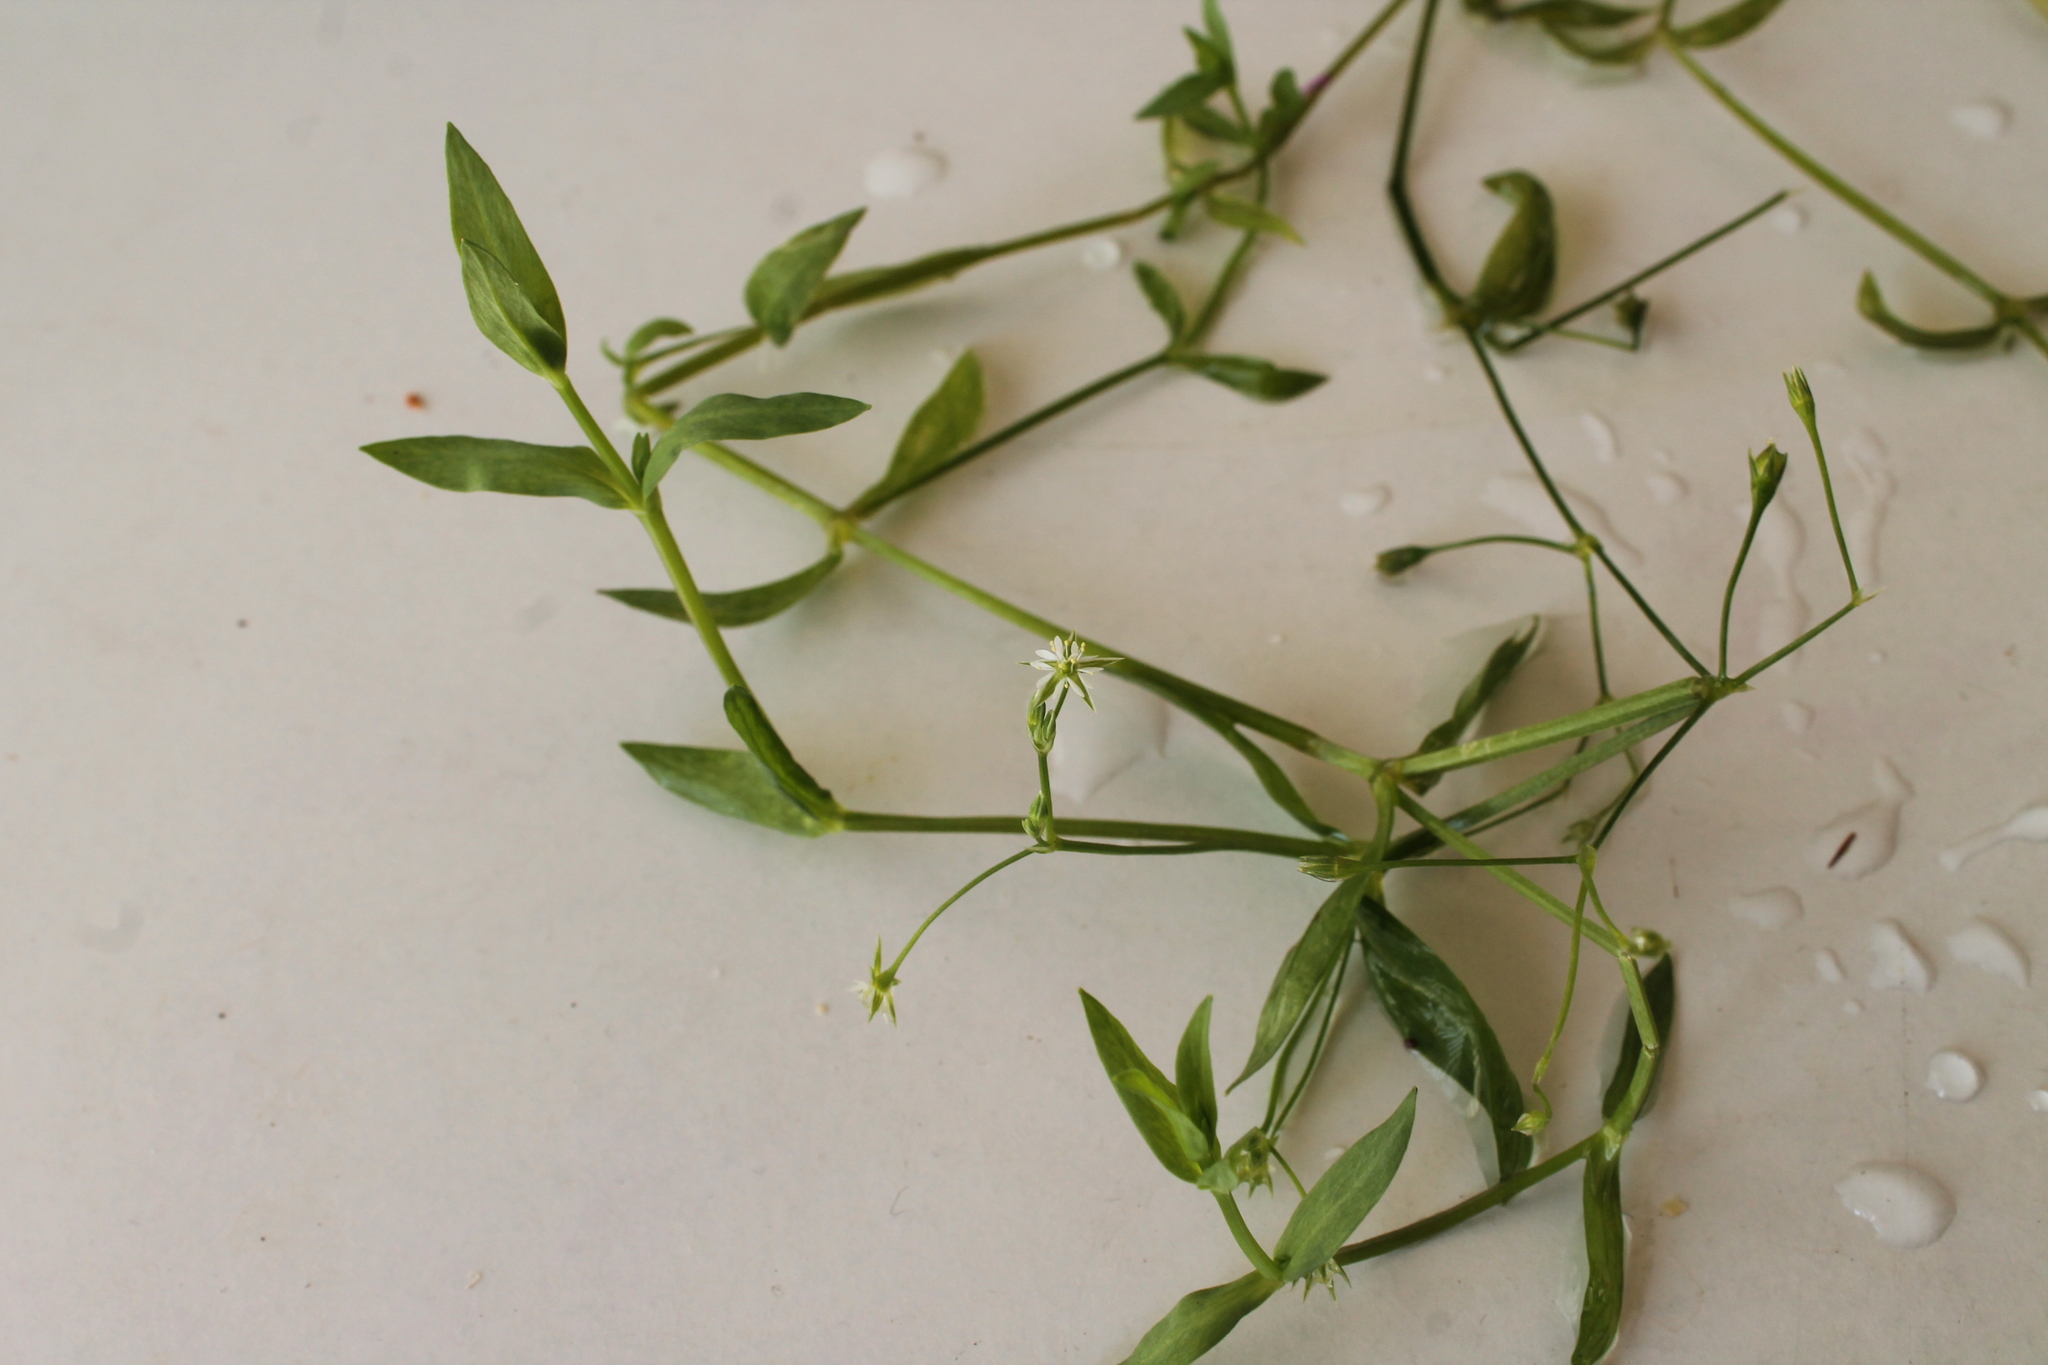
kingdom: Plantae
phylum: Tracheophyta
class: Magnoliopsida
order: Caryophyllales
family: Caryophyllaceae
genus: Stellaria
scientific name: Stellaria alsine
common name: Bog stitchwort
